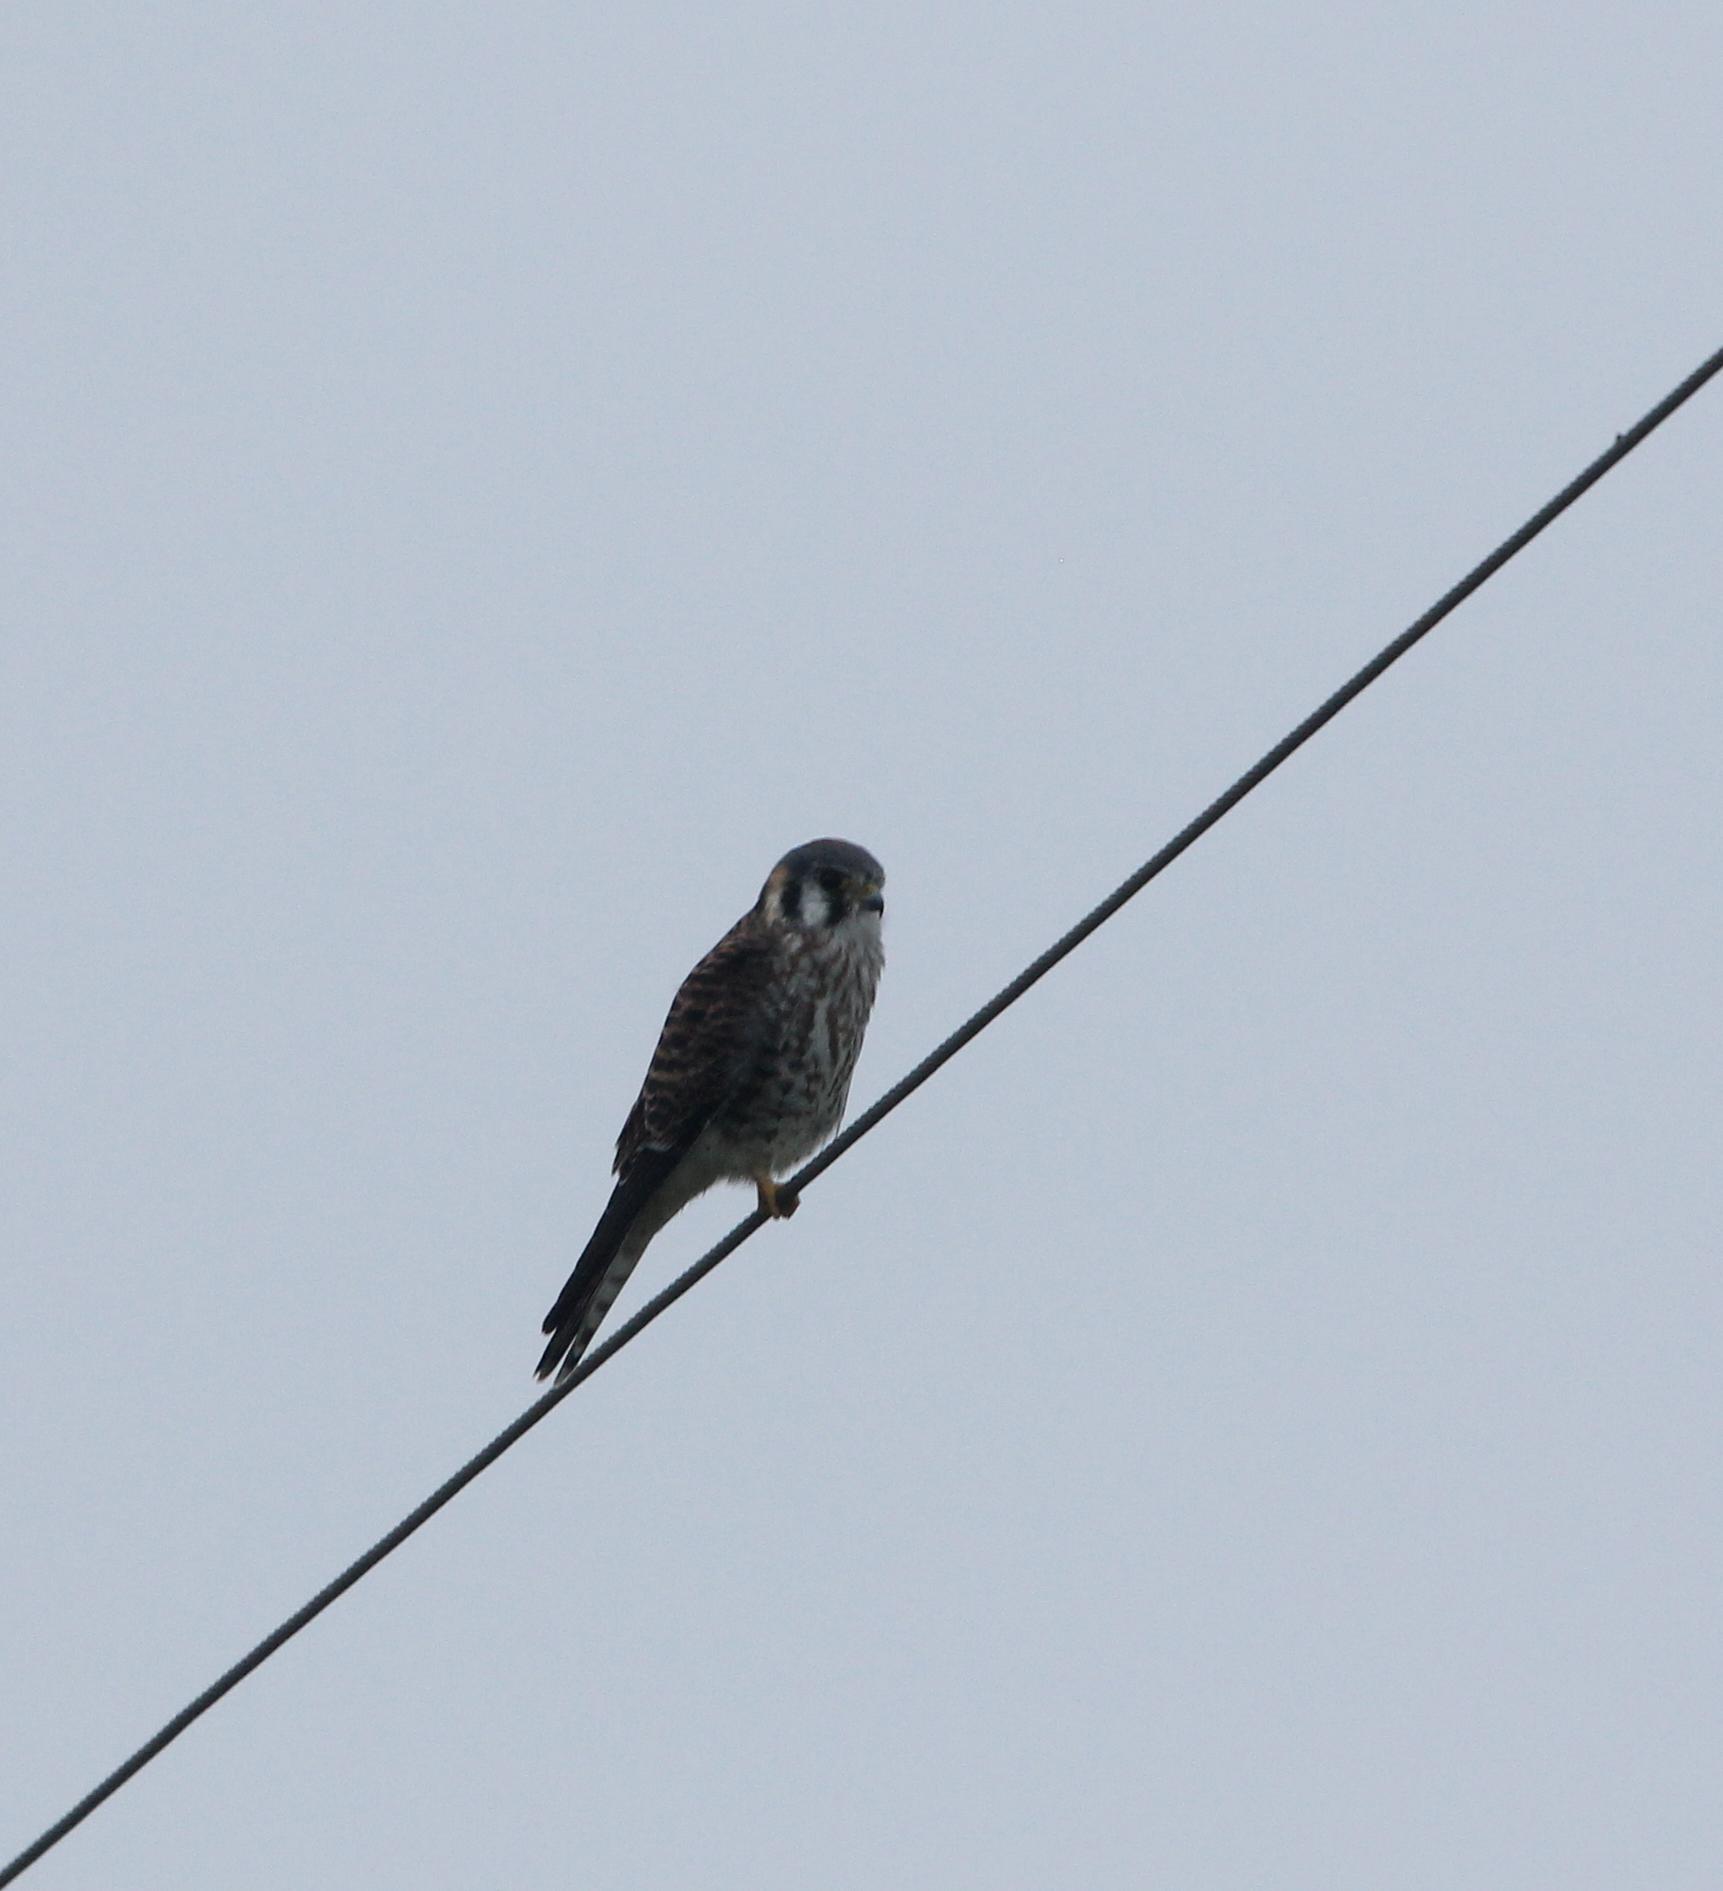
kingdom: Animalia
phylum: Chordata
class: Aves
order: Falconiformes
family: Falconidae
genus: Falco
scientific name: Falco sparverius
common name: American kestrel
